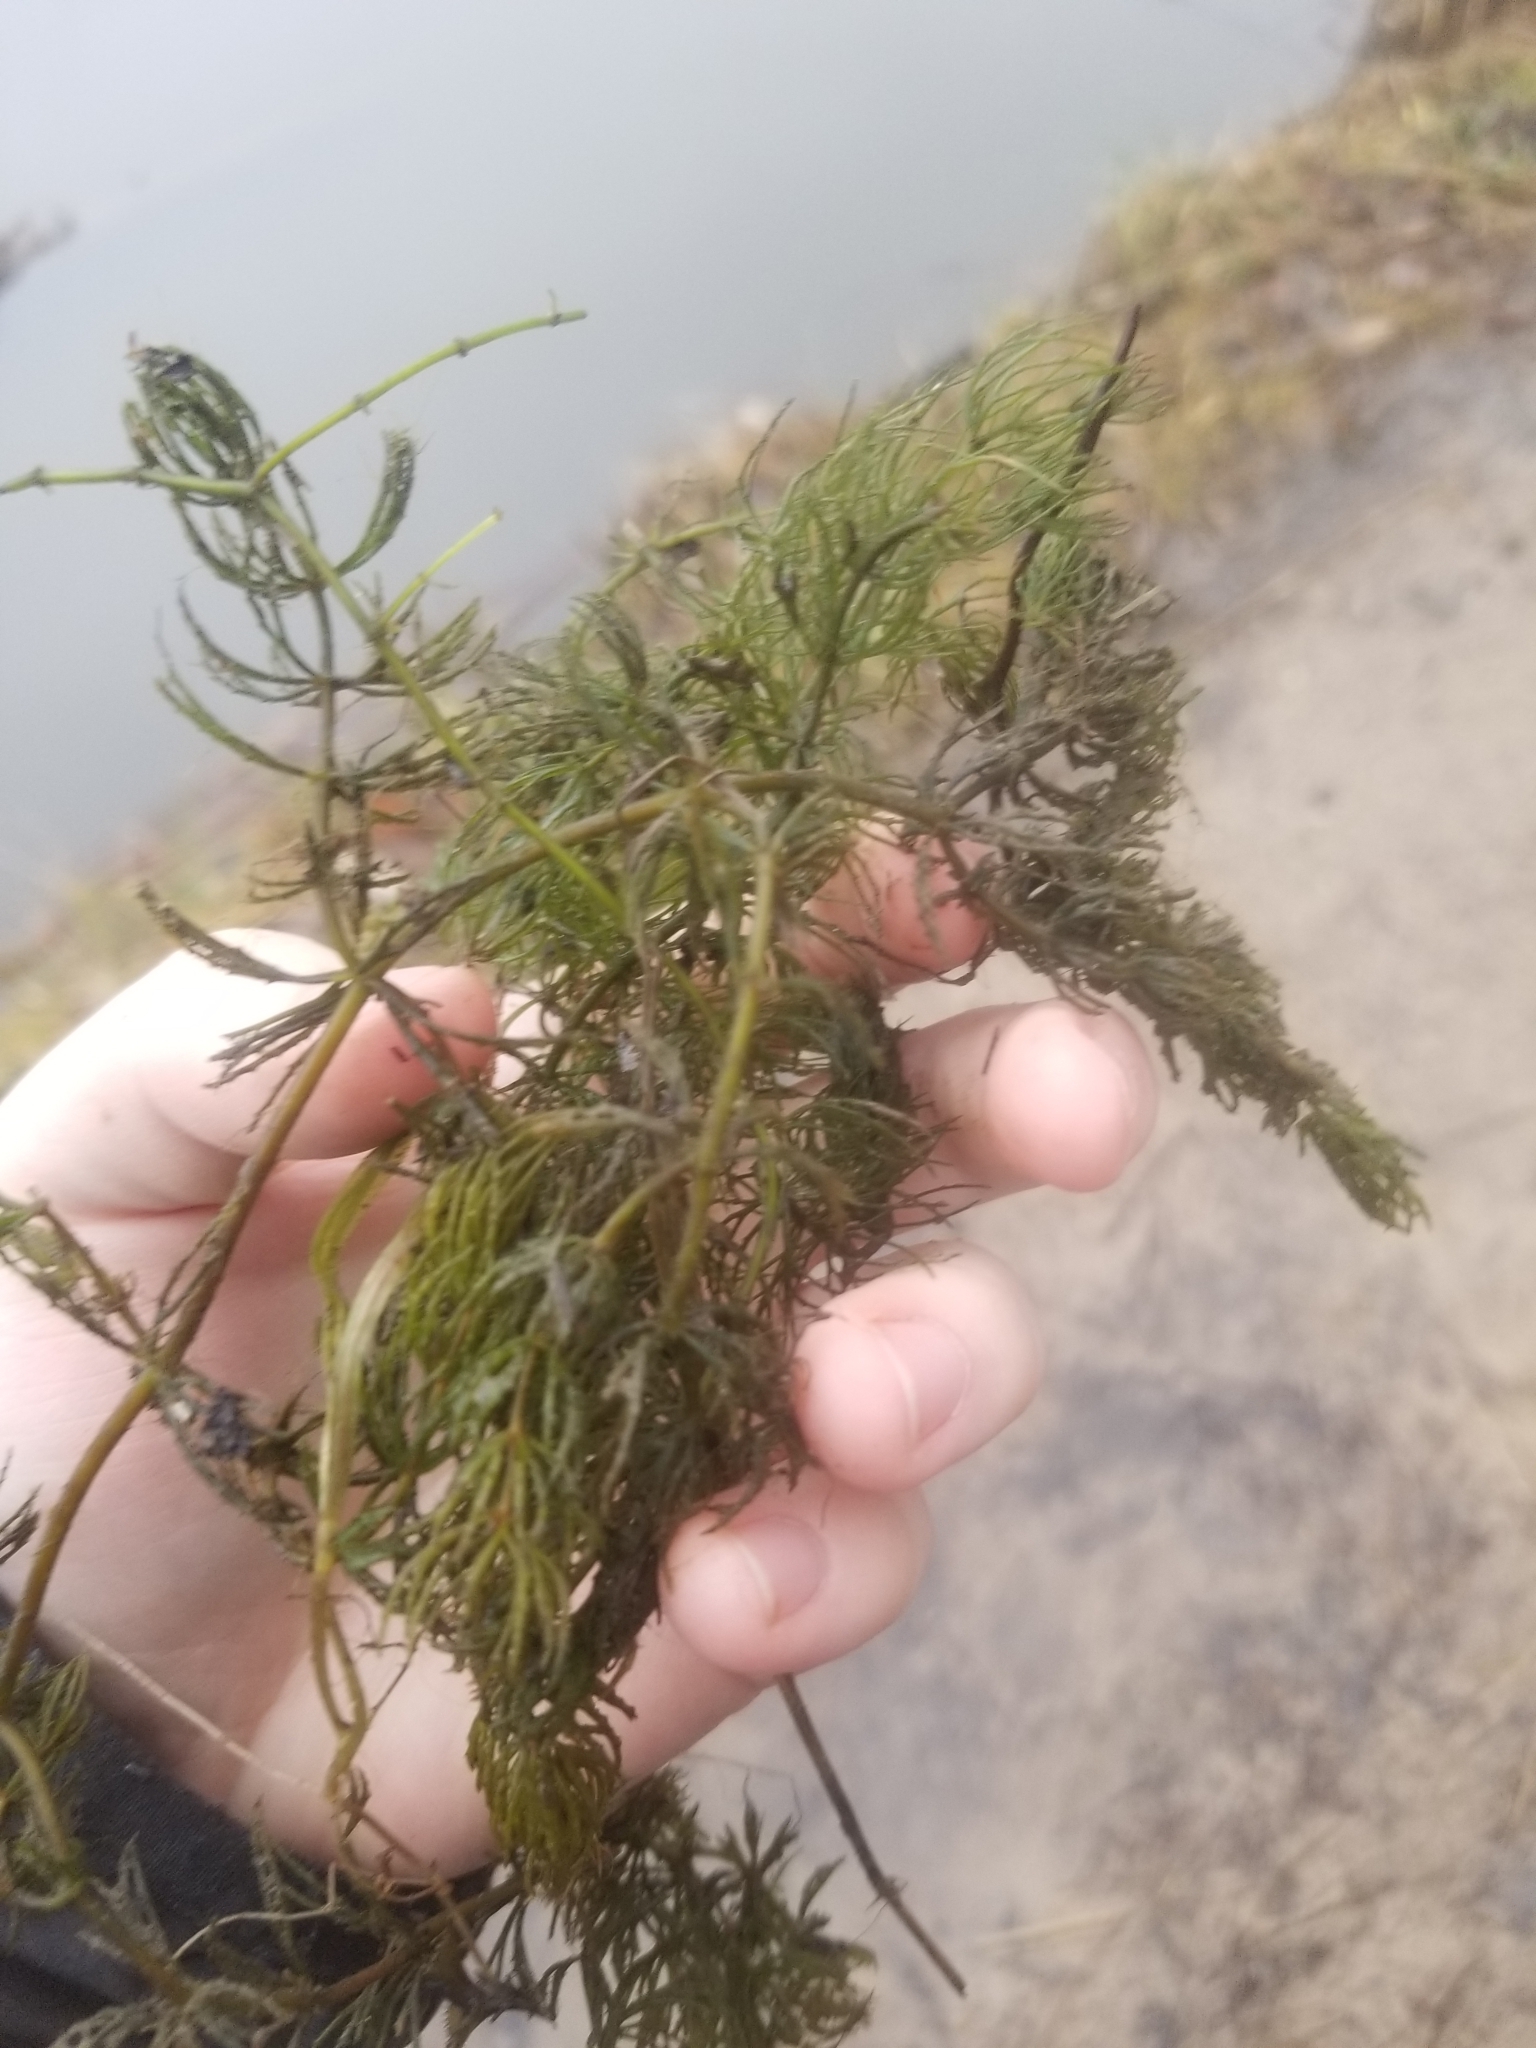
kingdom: Plantae
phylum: Tracheophyta
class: Magnoliopsida
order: Ceratophyllales
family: Ceratophyllaceae
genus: Ceratophyllum
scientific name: Ceratophyllum demersum
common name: Rigid hornwort
